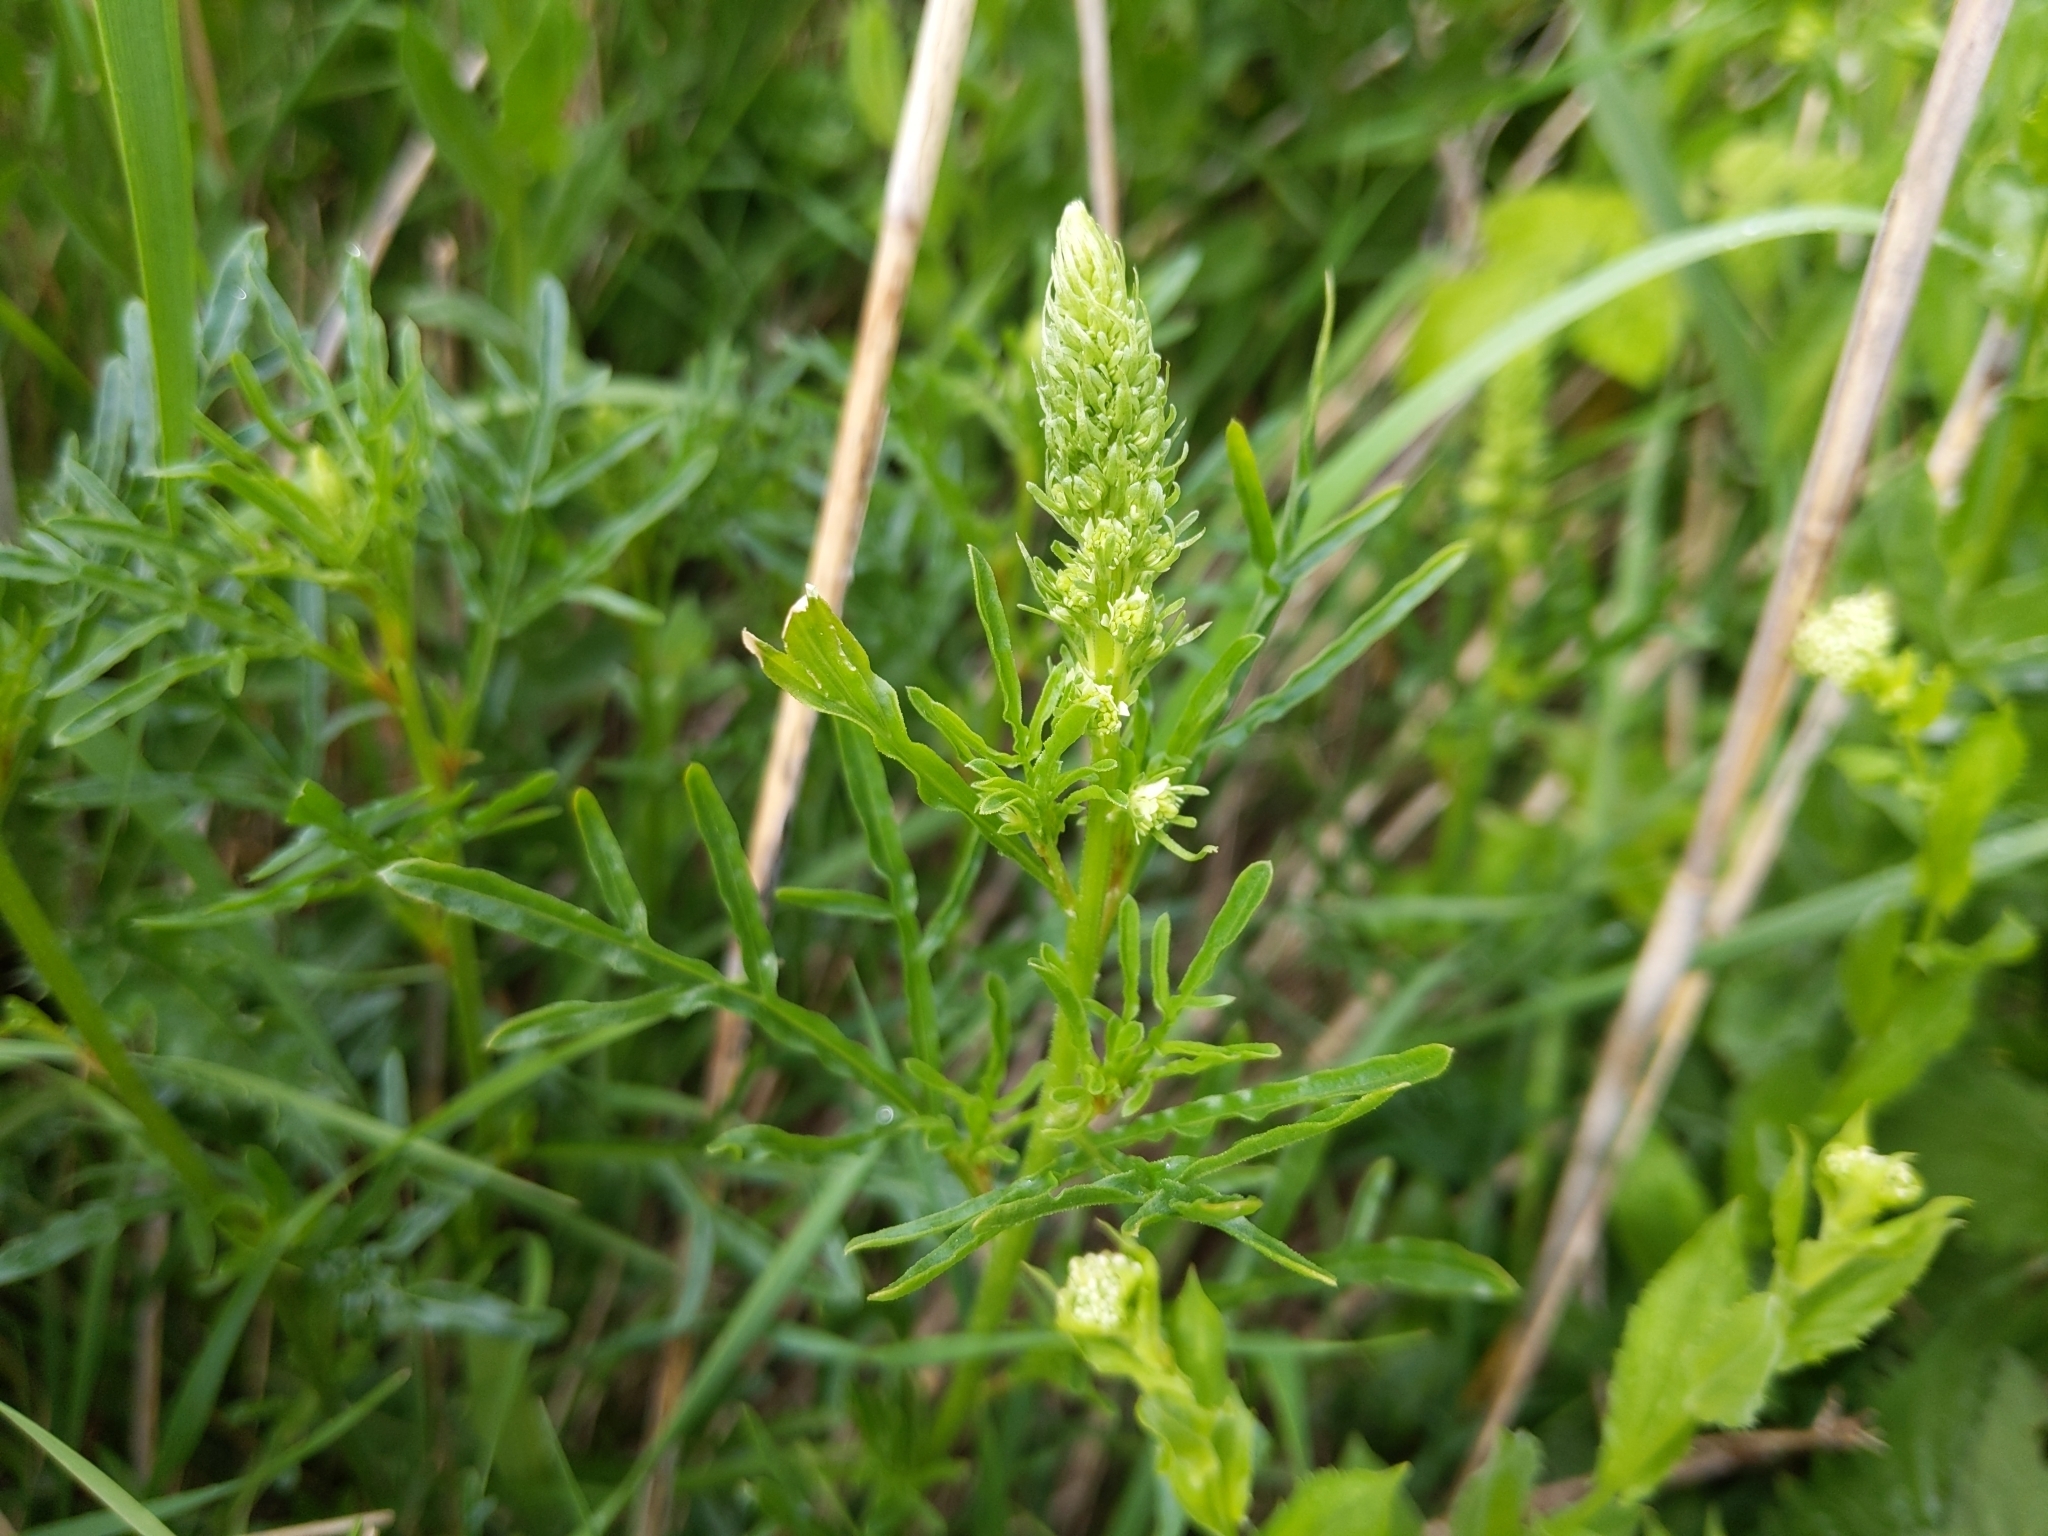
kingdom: Plantae
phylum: Tracheophyta
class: Magnoliopsida
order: Brassicales
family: Resedaceae
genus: Reseda
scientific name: Reseda lutea
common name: Wild mignonette
